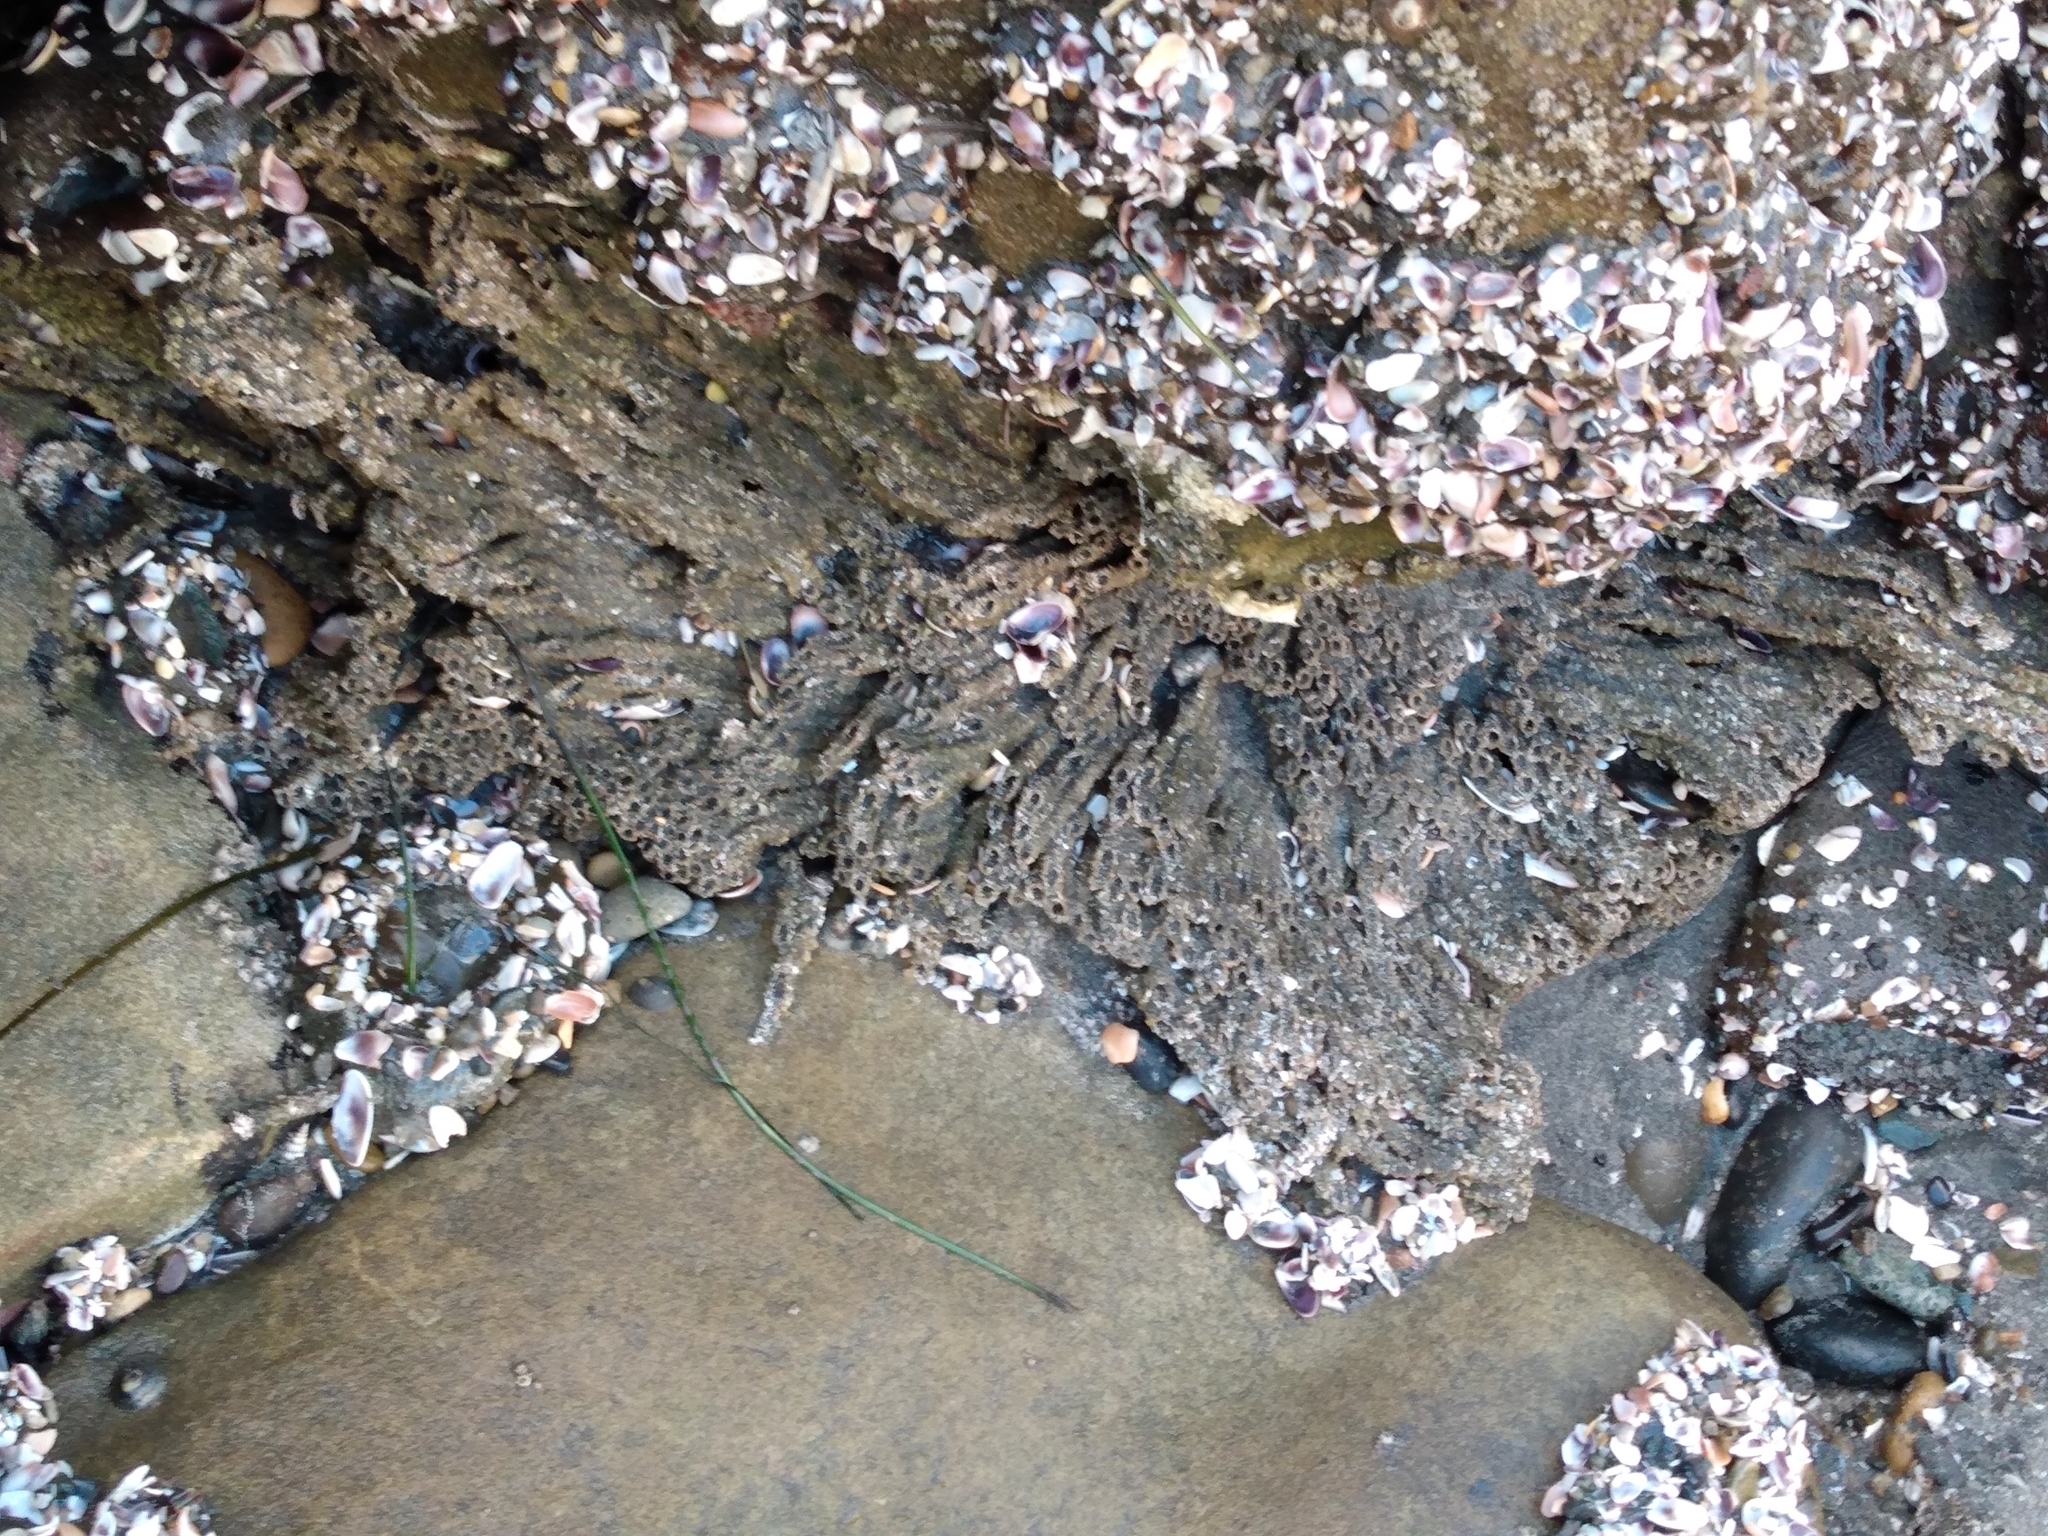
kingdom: Animalia
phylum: Annelida
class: Polychaeta
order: Sabellida
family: Sabellariidae
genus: Phragmatopoma
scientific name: Phragmatopoma californica
